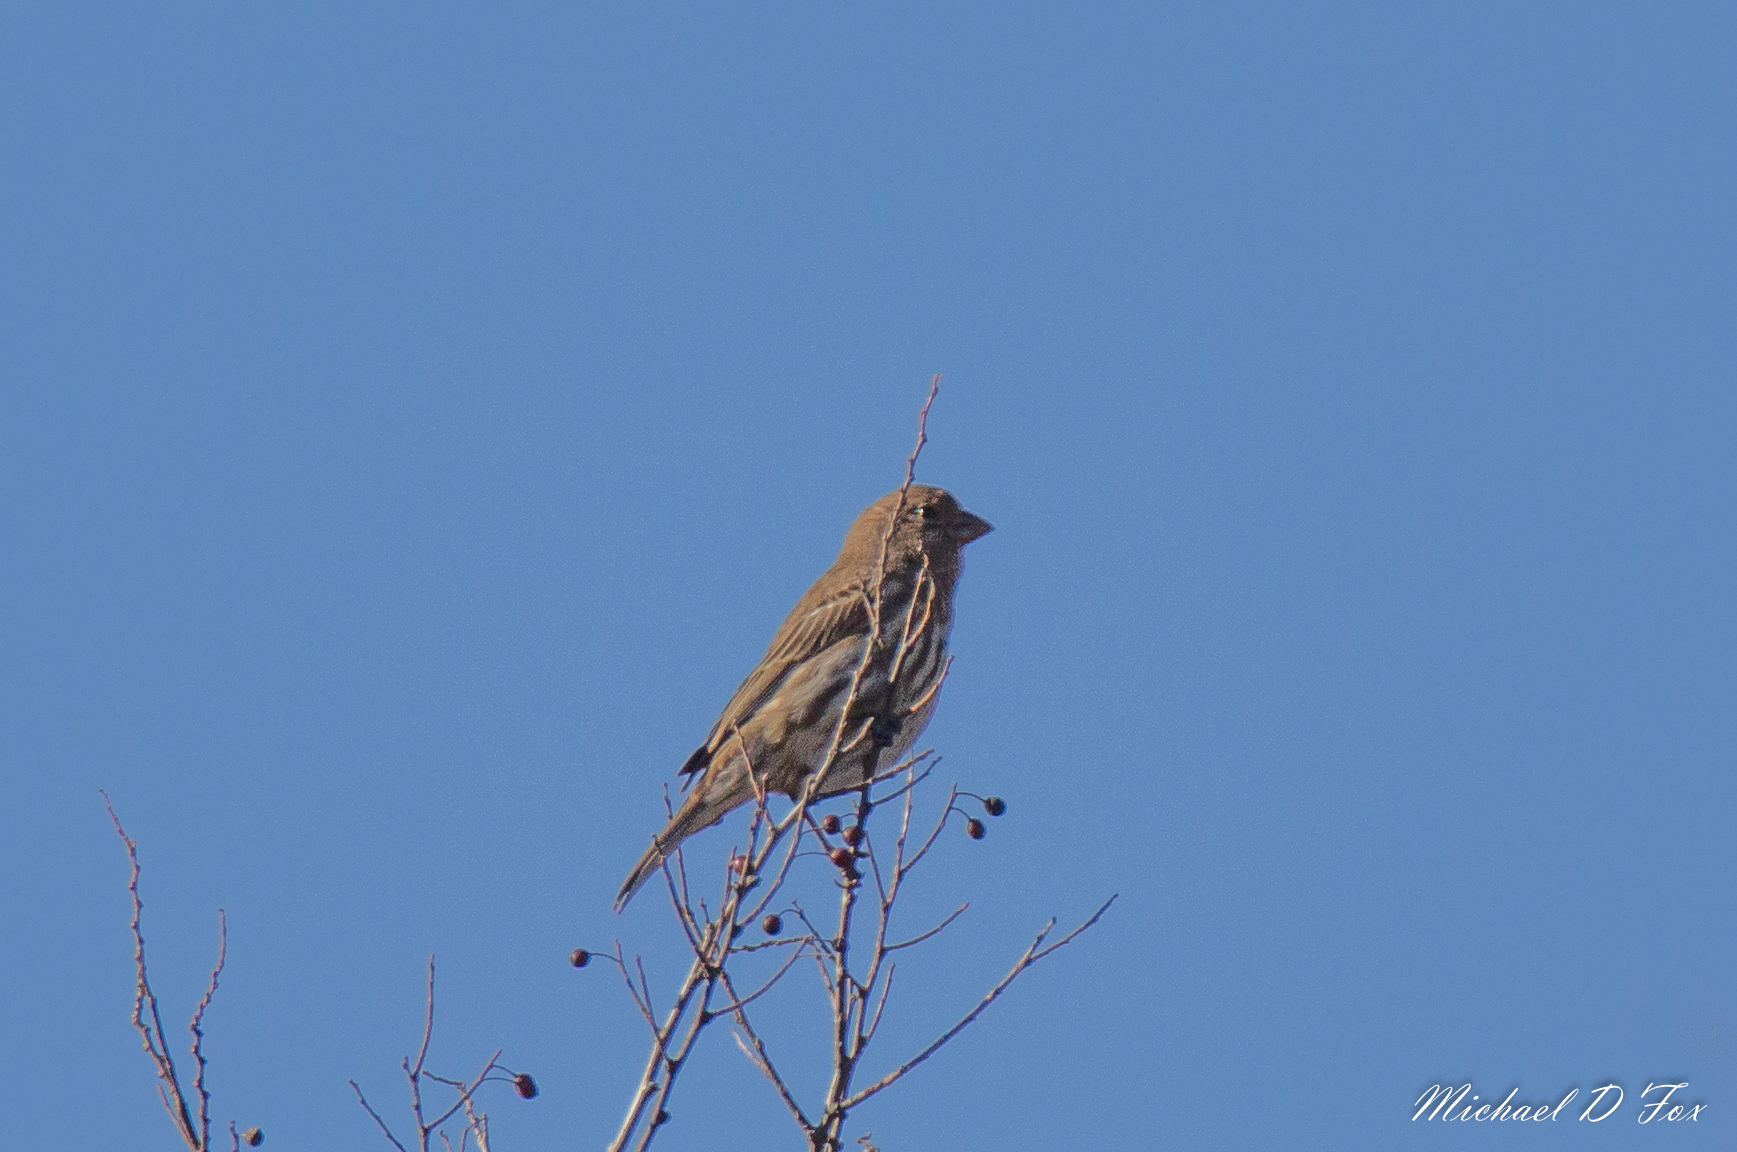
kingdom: Animalia
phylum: Chordata
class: Aves
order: Passeriformes
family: Fringillidae
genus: Haemorhous
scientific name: Haemorhous mexicanus
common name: House finch
